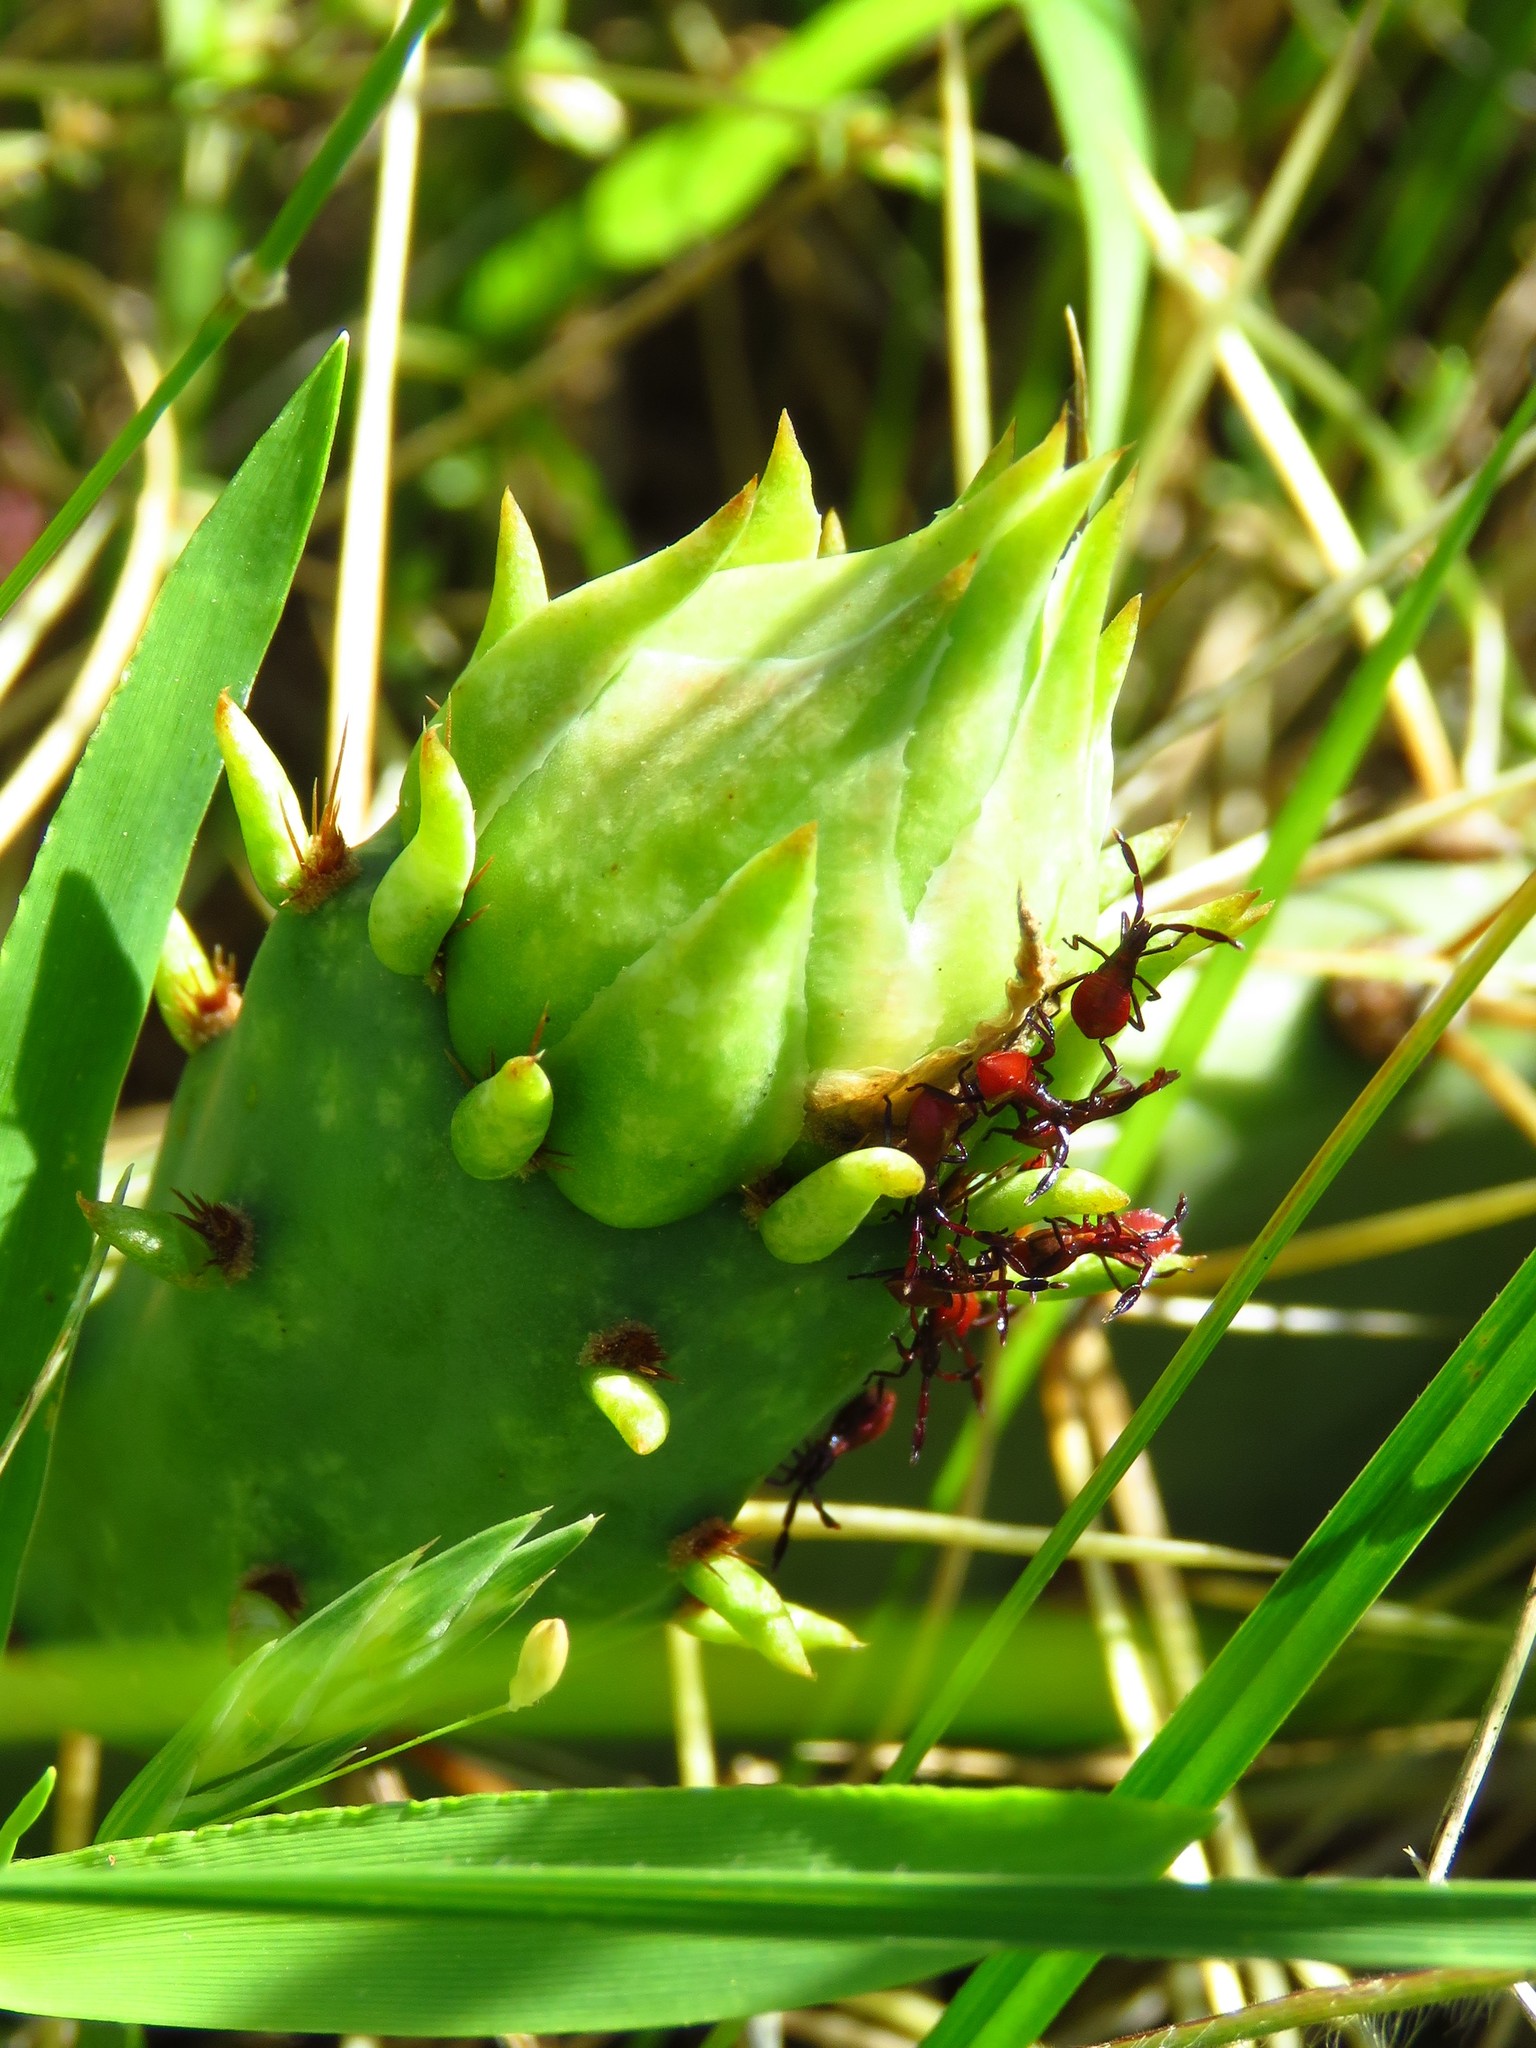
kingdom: Animalia
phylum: Arthropoda
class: Insecta
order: Hemiptera
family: Coreidae
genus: Chelinidea
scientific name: Chelinidea vittiger
